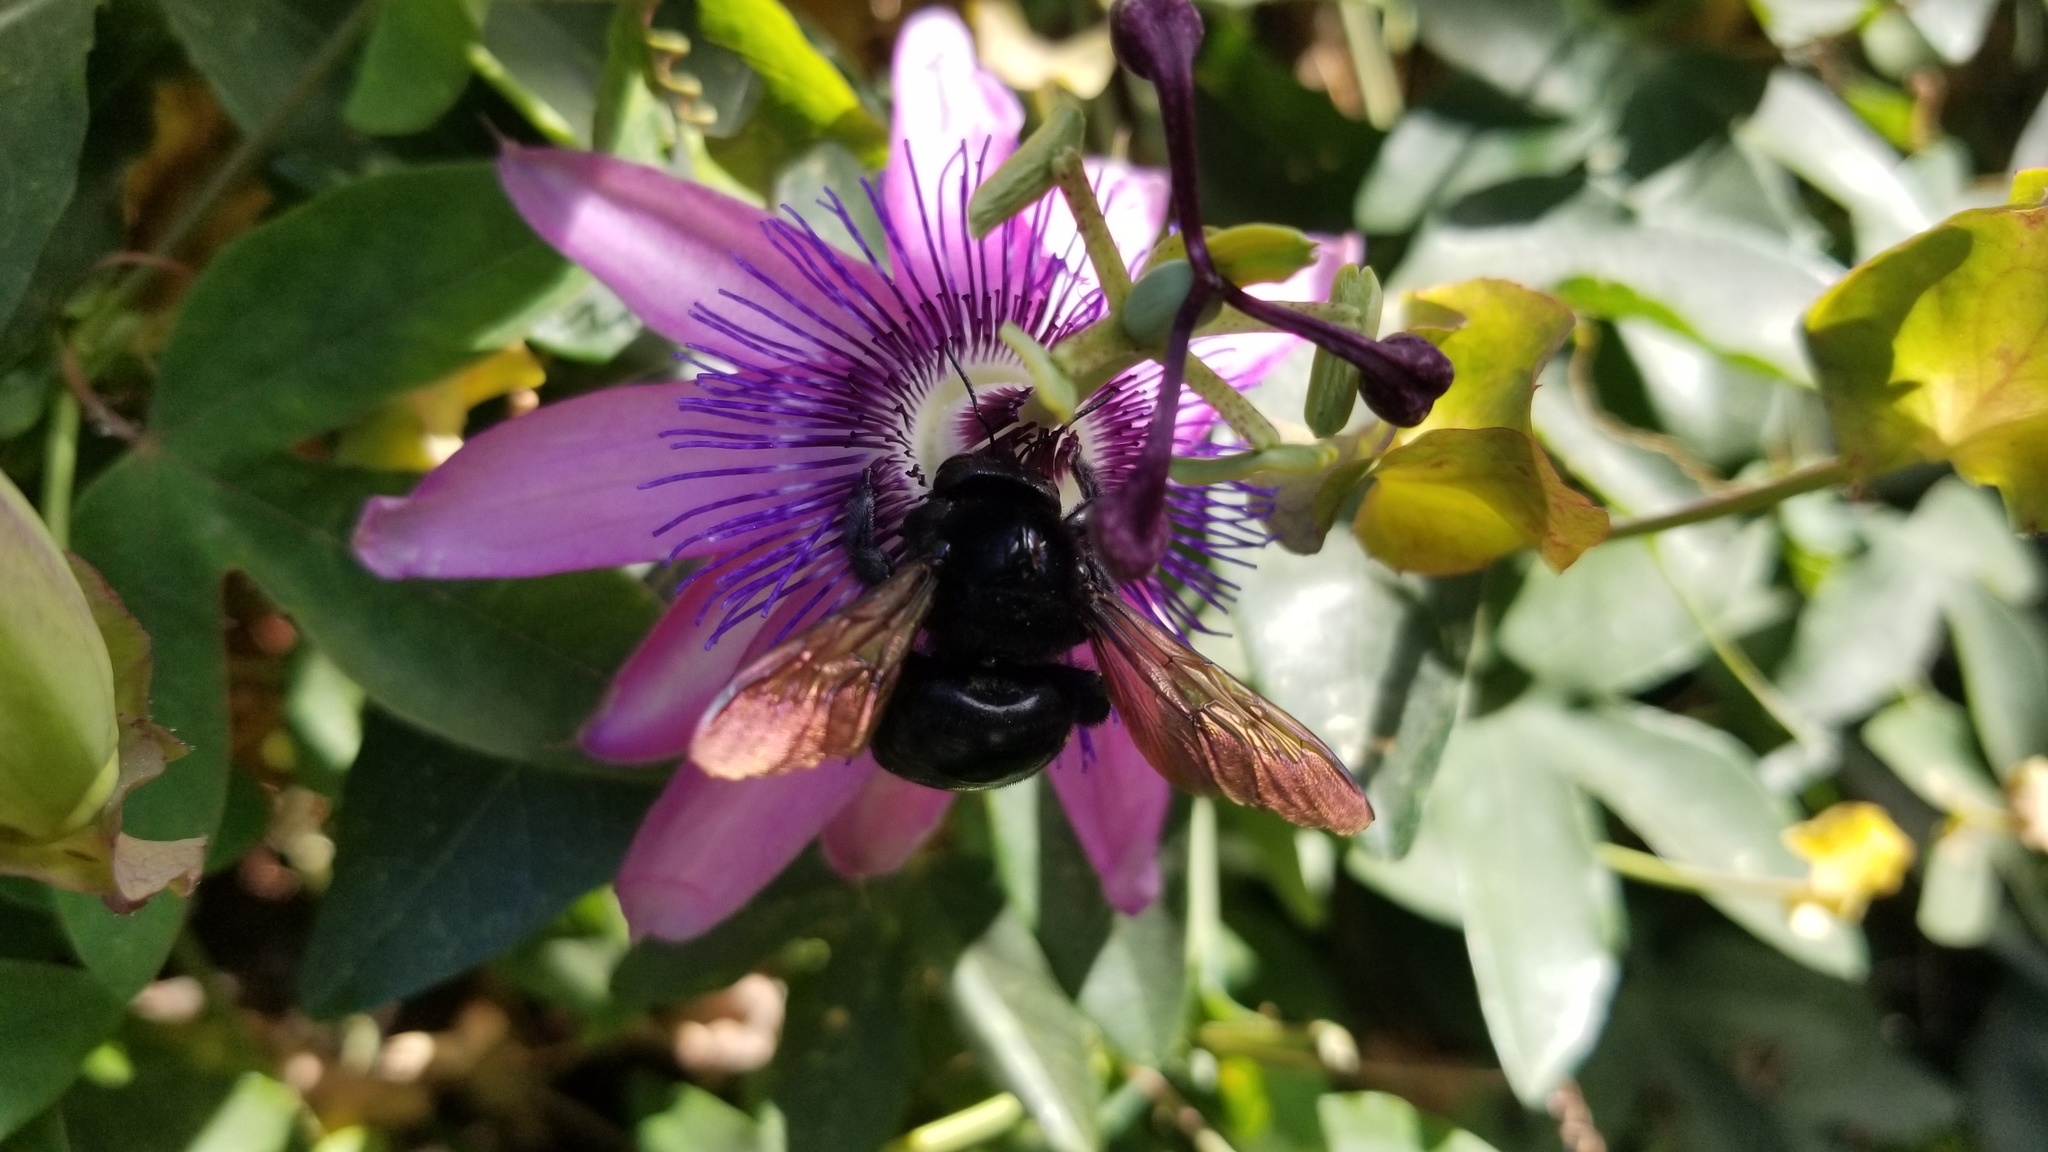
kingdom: Animalia
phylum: Arthropoda
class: Insecta
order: Hymenoptera
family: Apidae
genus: Xylocopa
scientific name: Xylocopa sonorina
